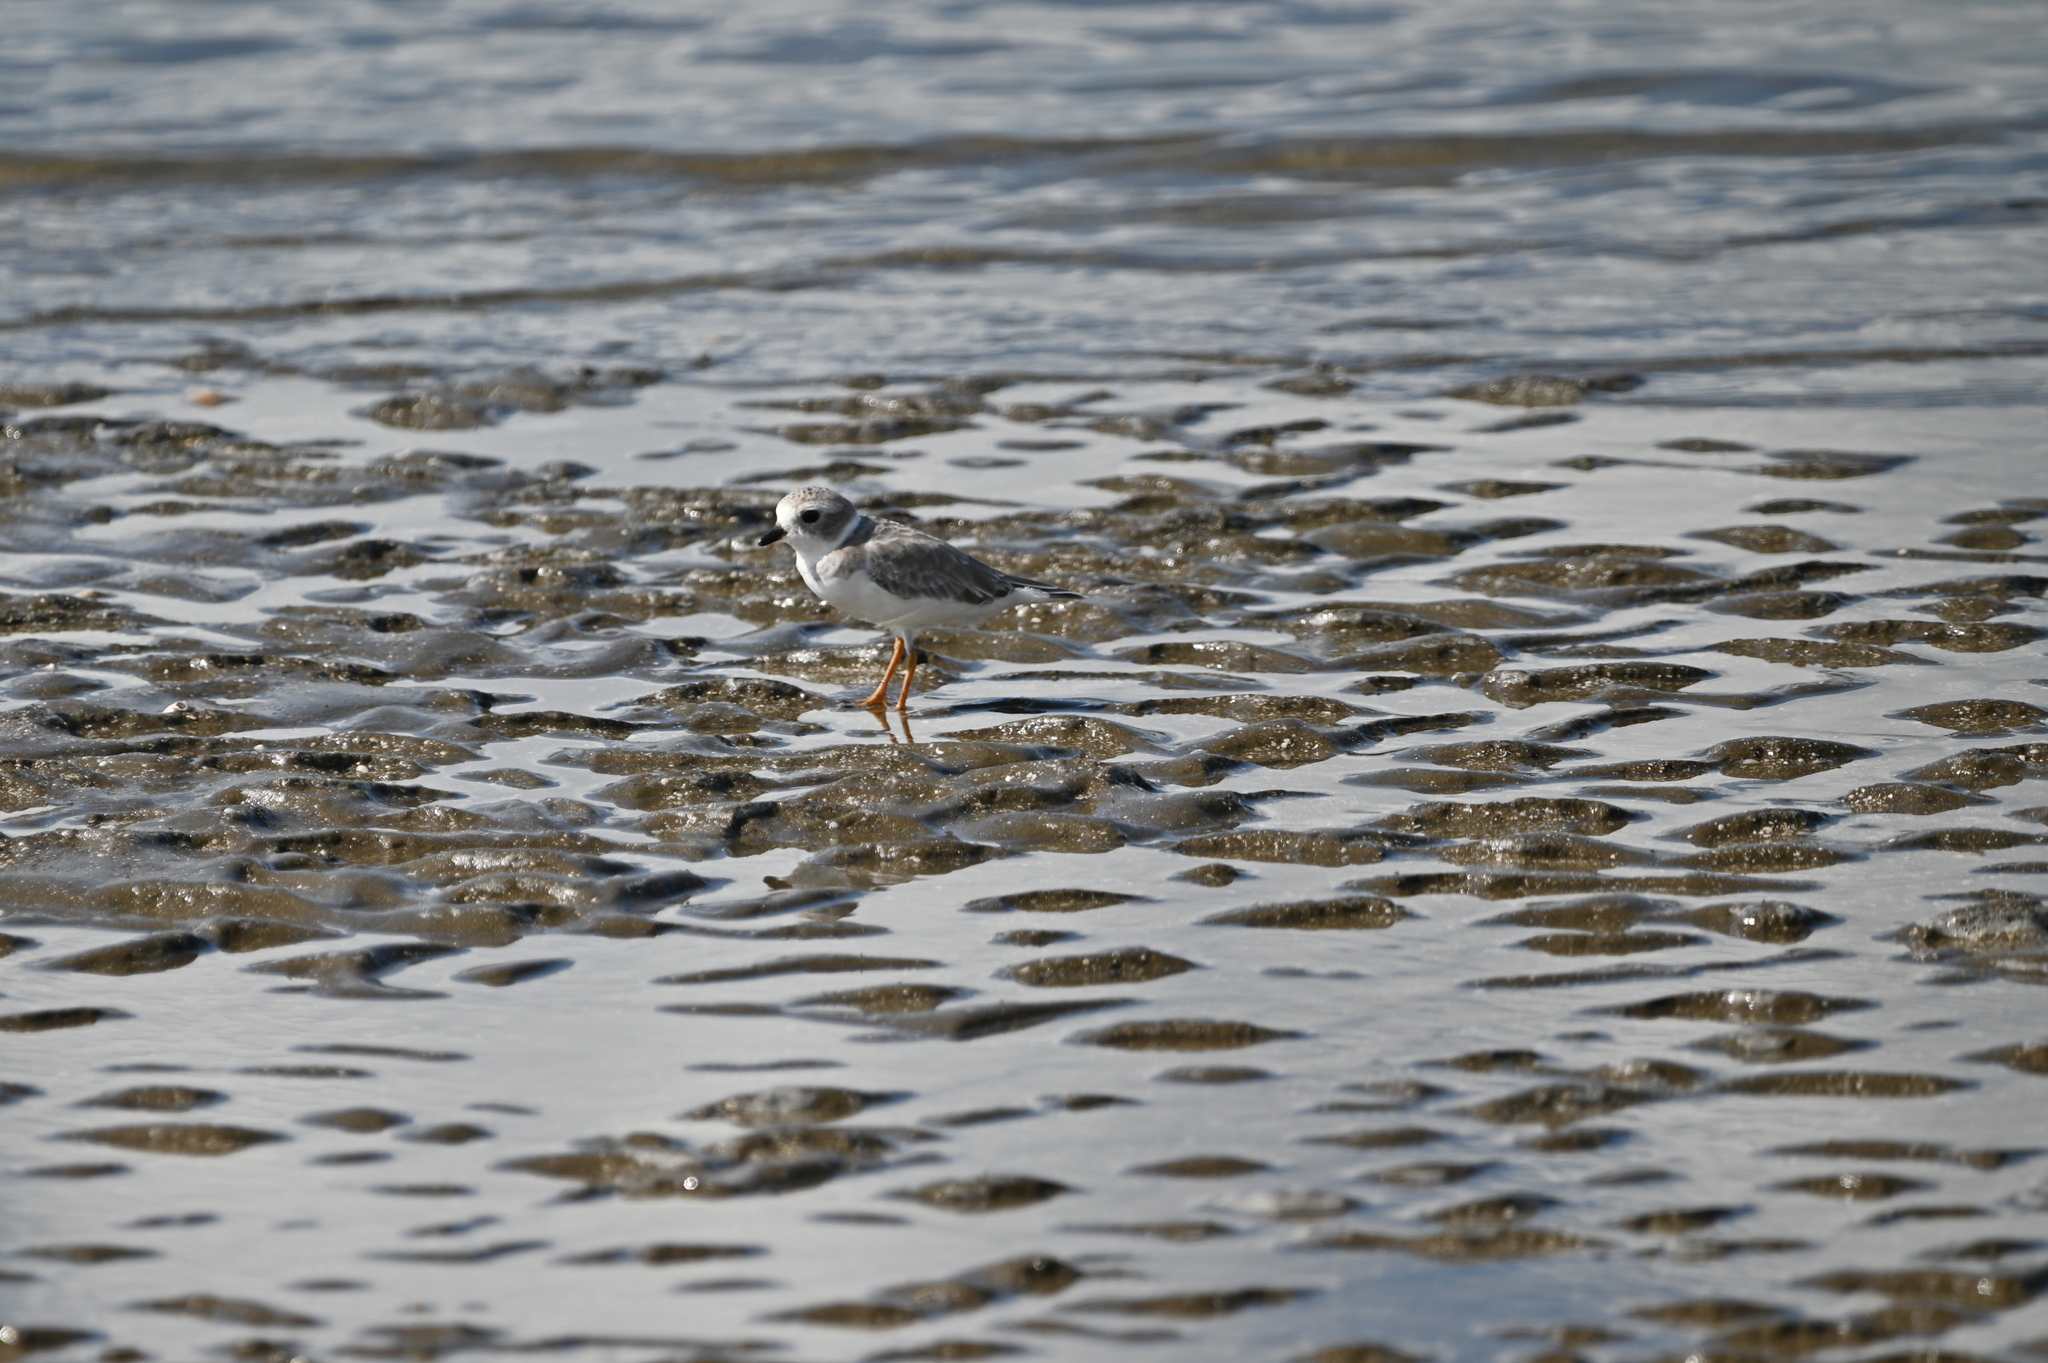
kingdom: Animalia
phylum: Chordata
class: Aves
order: Charadriiformes
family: Charadriidae
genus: Charadrius
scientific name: Charadrius melodus
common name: Piping plover
